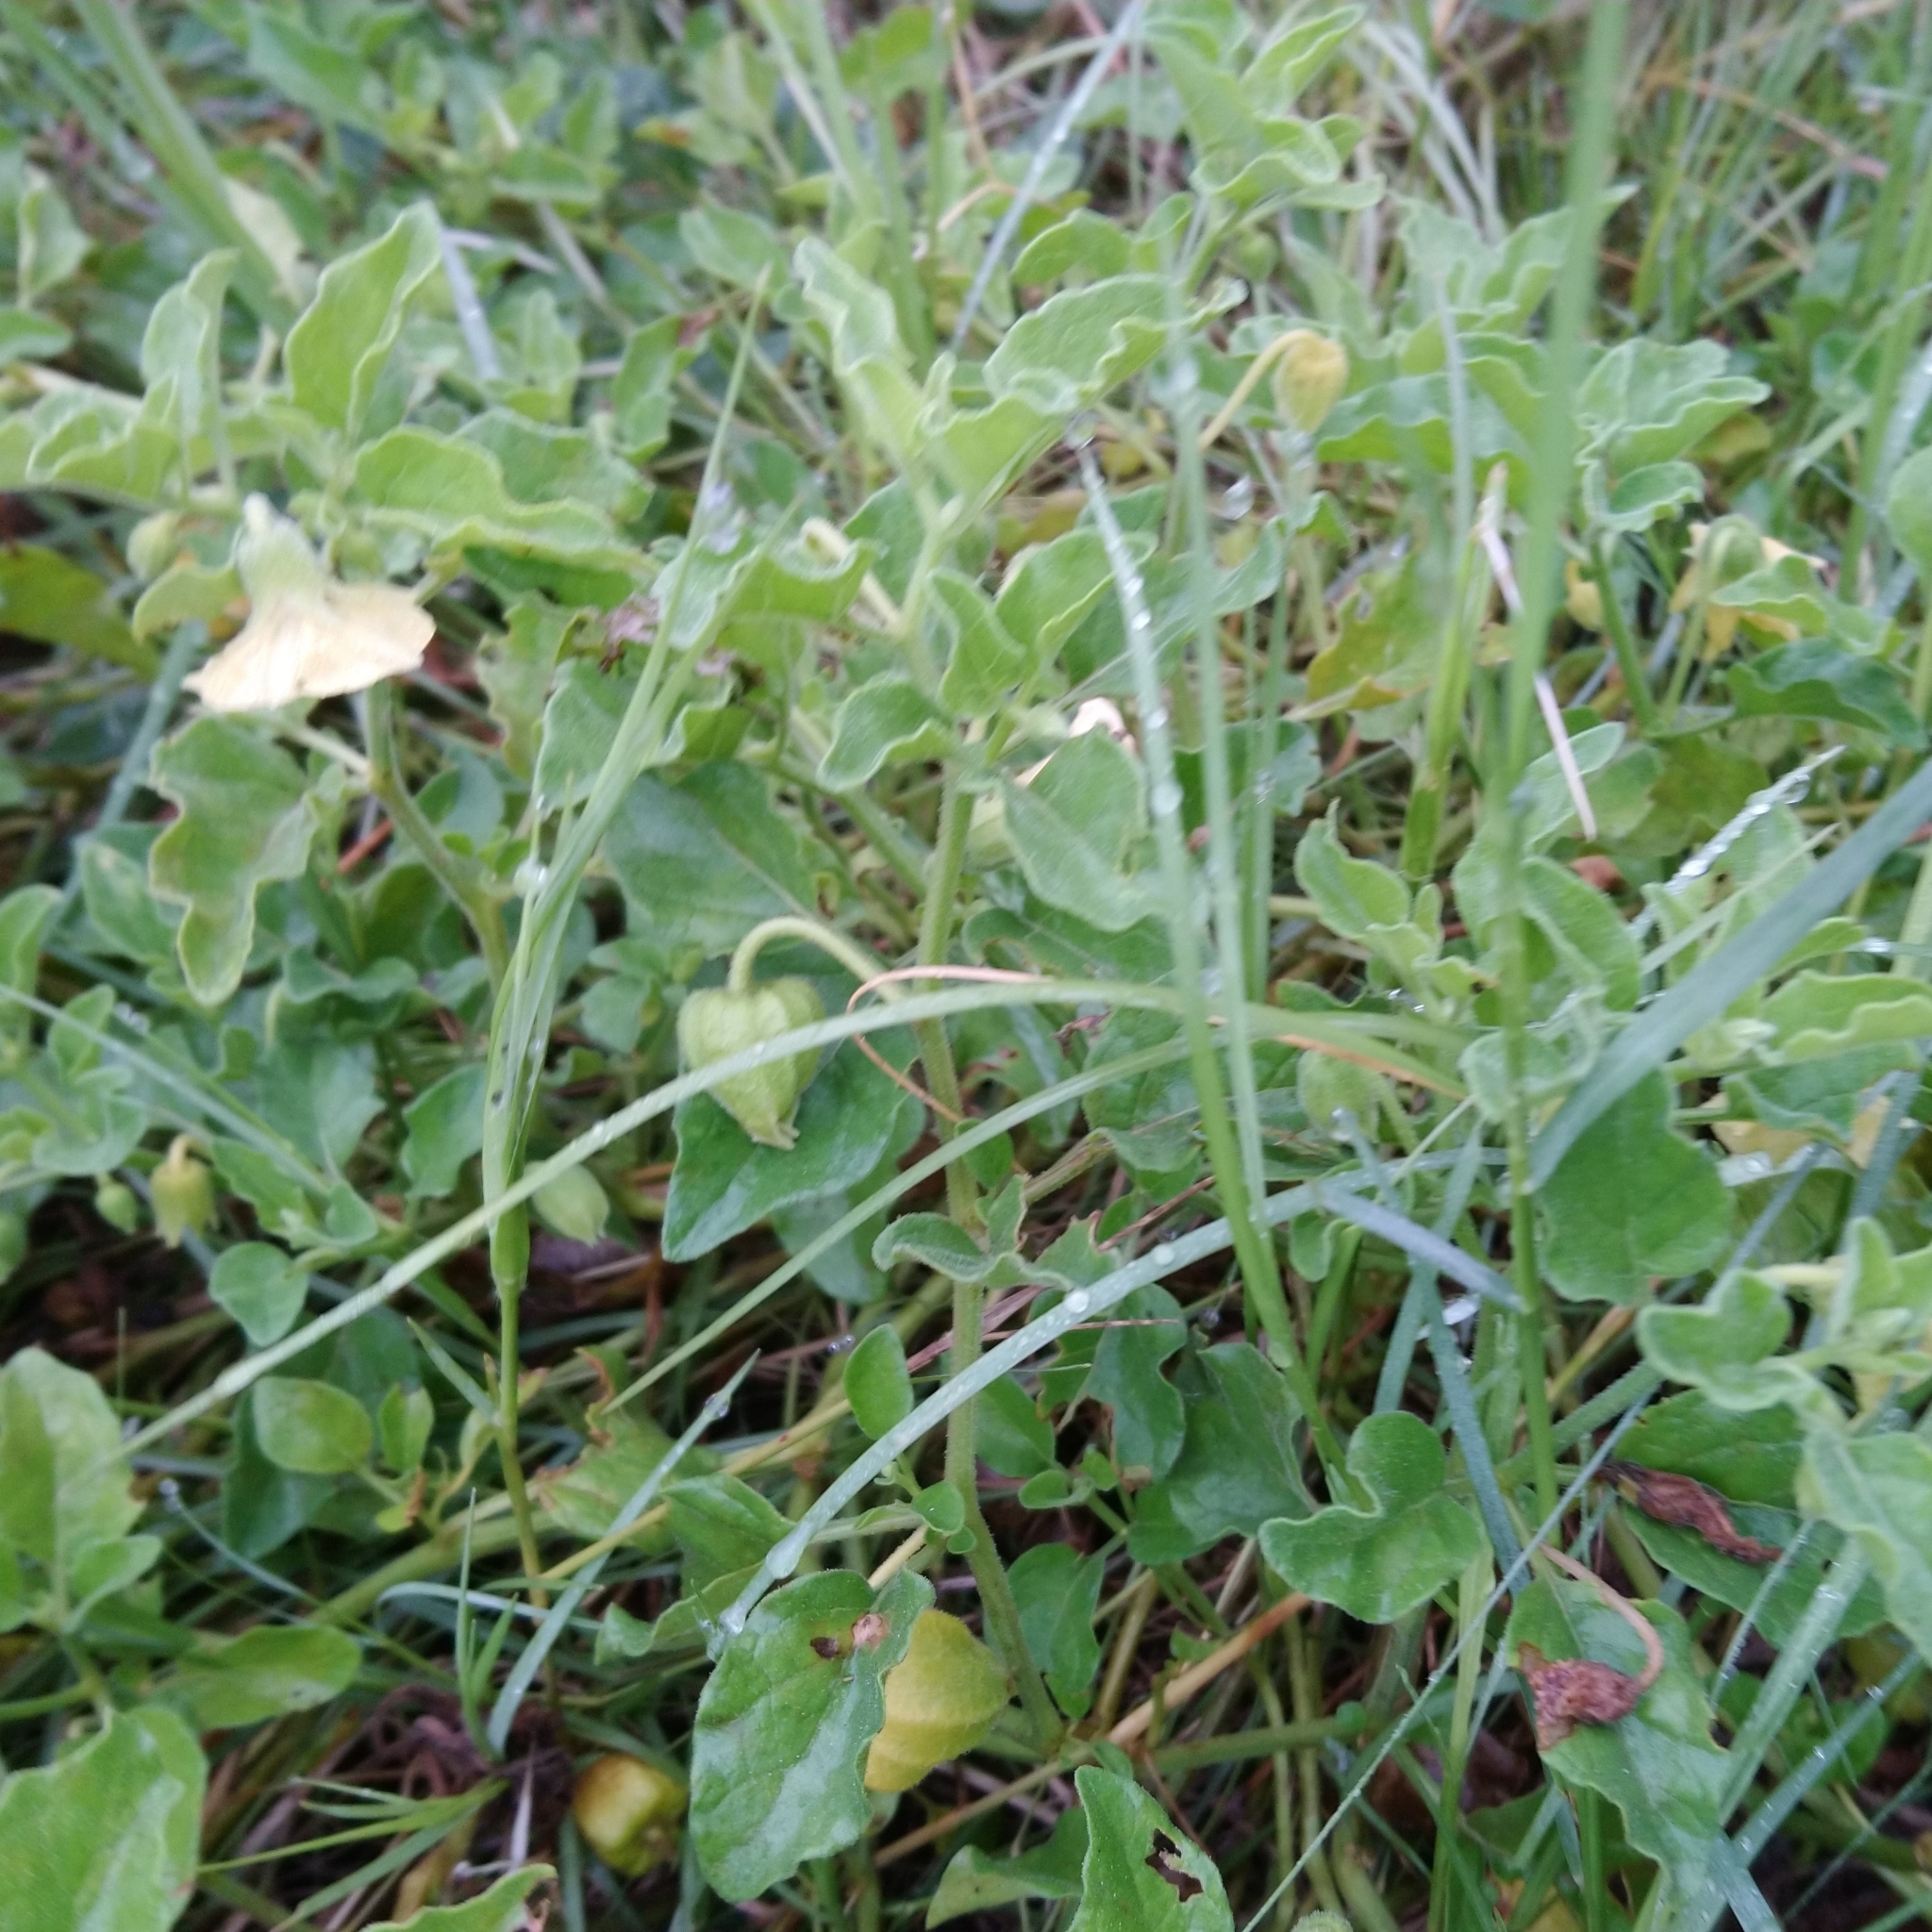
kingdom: Plantae
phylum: Tracheophyta
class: Magnoliopsida
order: Solanales
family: Solanaceae
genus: Physalis
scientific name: Physalis viscosa
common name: Stellate ground-cherry
